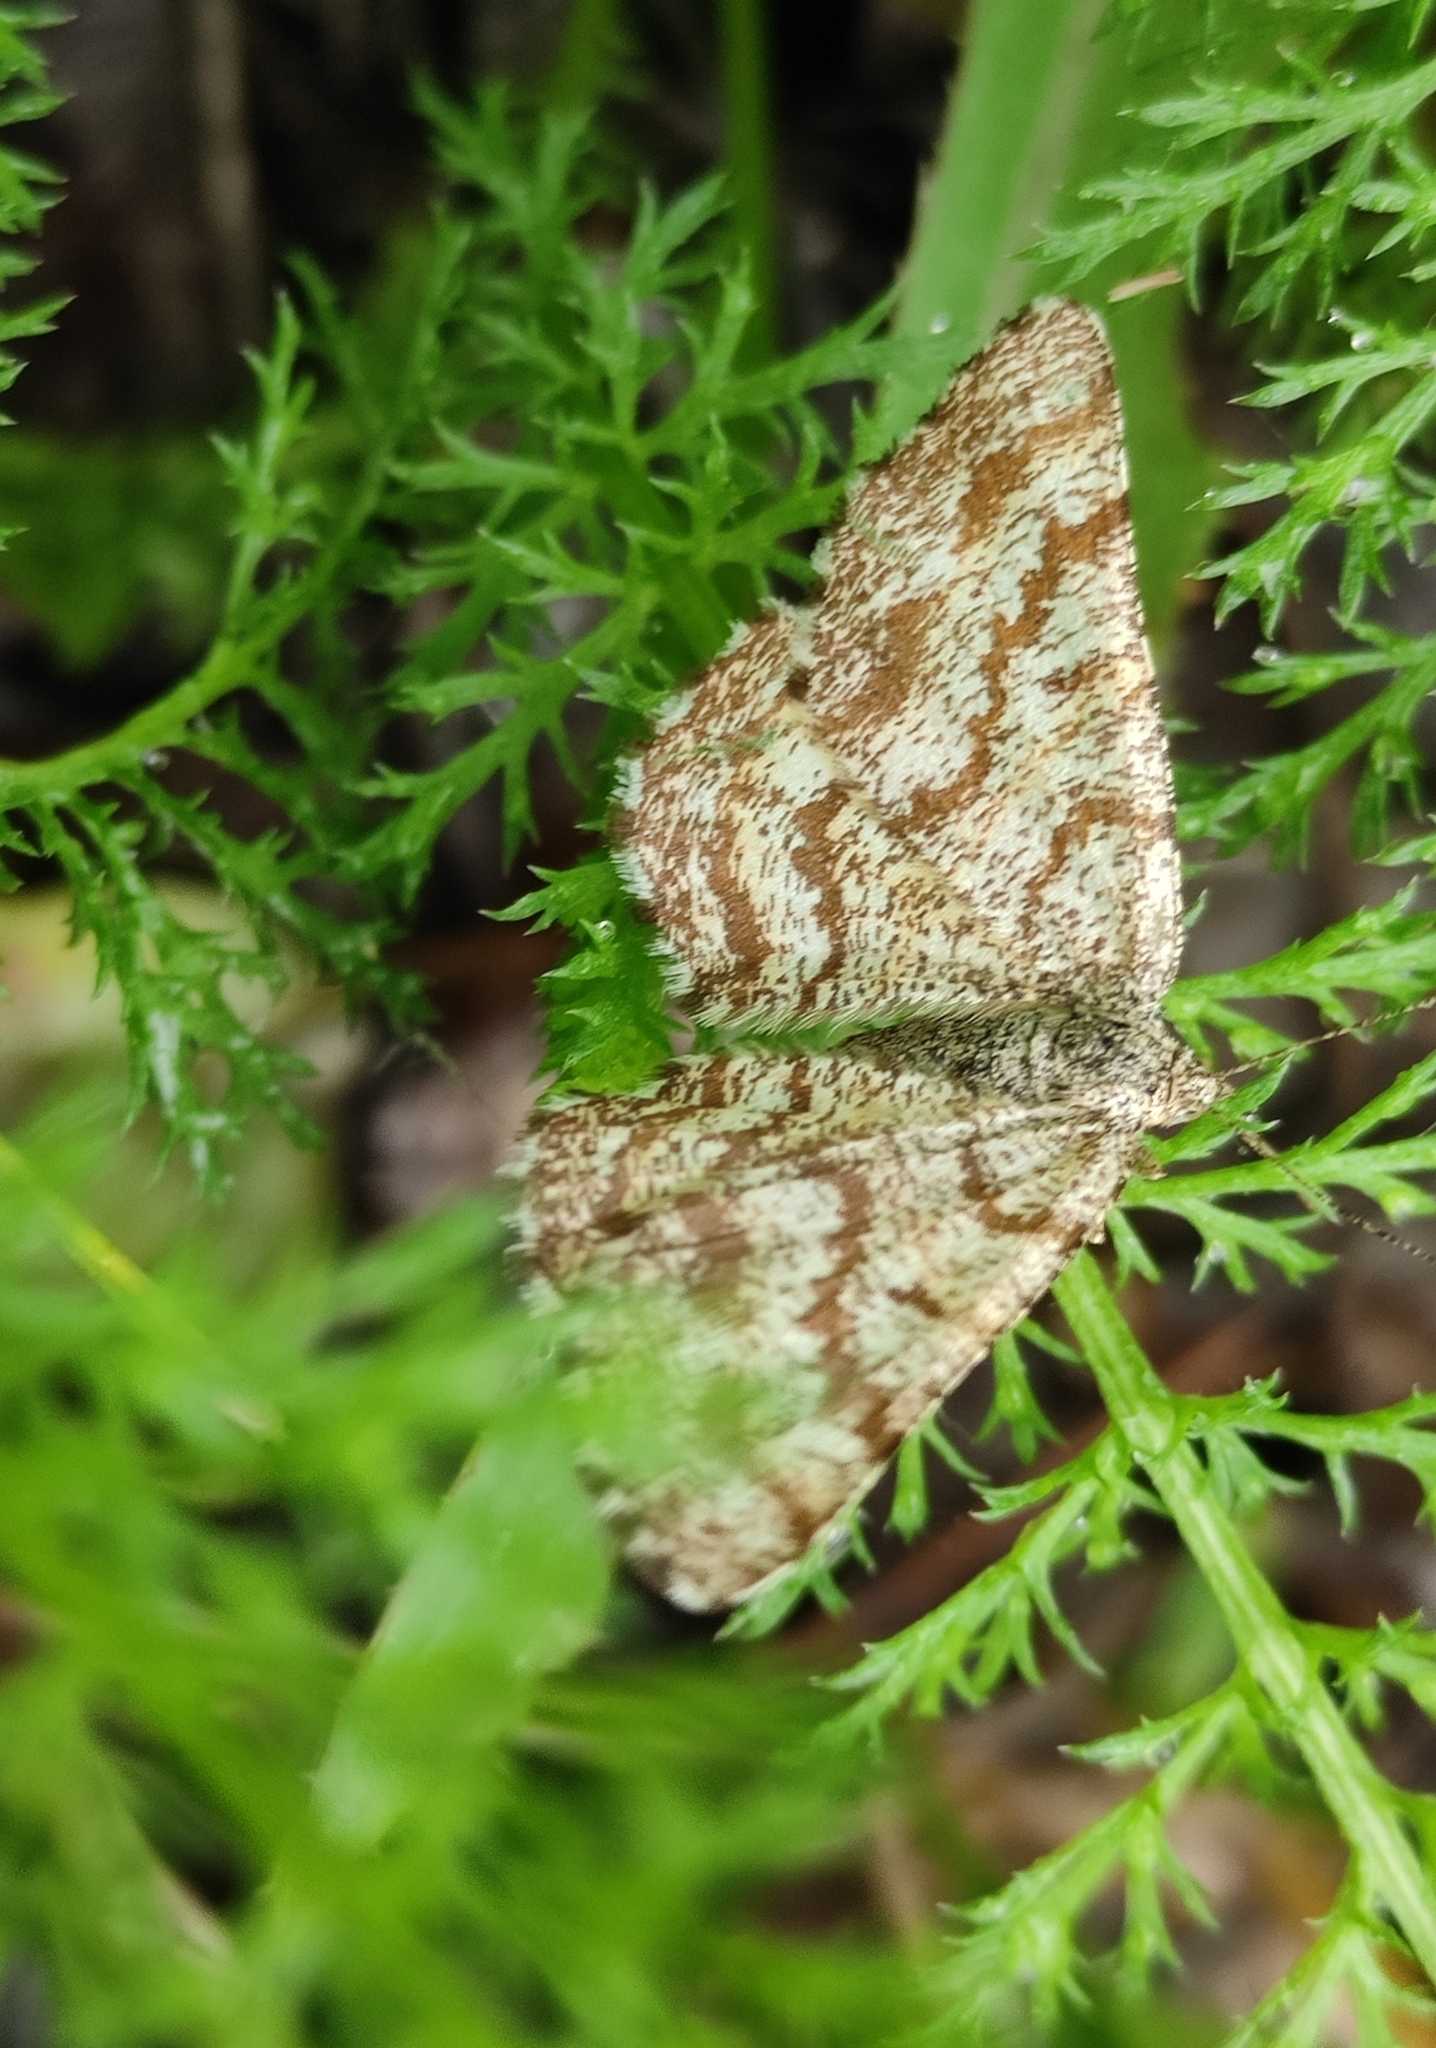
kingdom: Animalia
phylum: Arthropoda
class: Insecta
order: Lepidoptera
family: Geometridae
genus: Ematurga
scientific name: Ematurga atomaria
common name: Common heath
